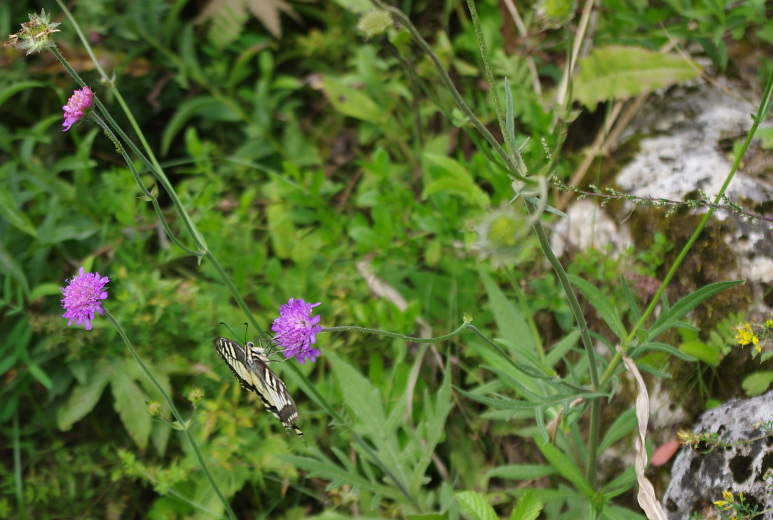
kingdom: Plantae
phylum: Tracheophyta
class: Magnoliopsida
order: Dipsacales
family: Caprifoliaceae
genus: Knautia
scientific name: Knautia arvensis
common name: Field scabiosa
